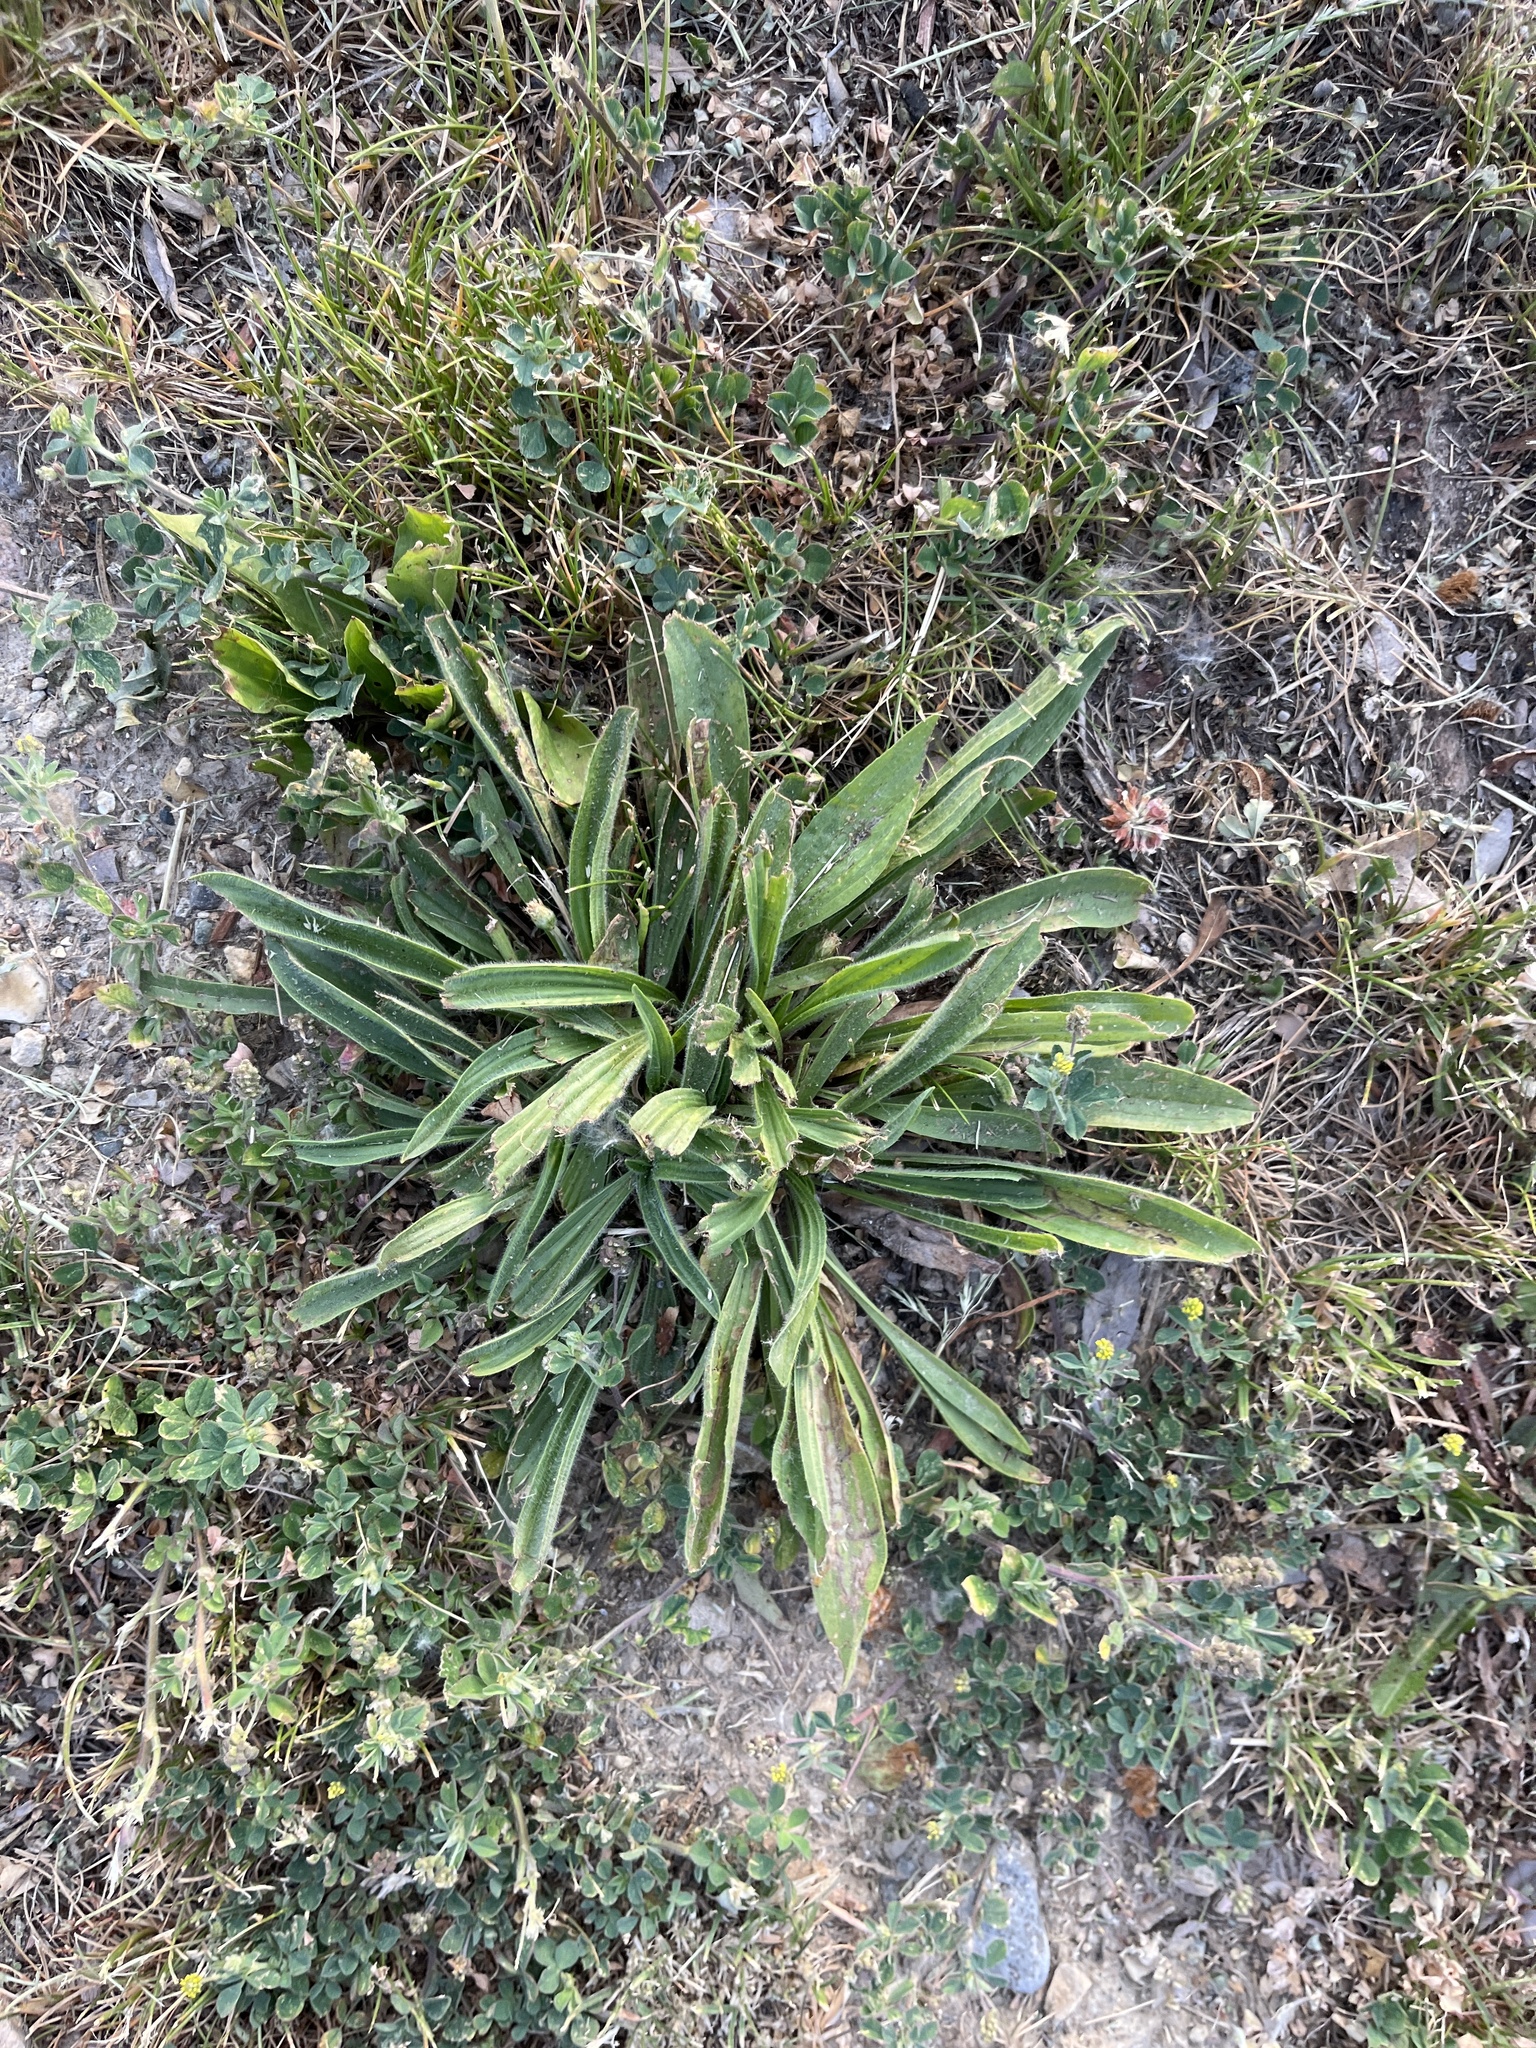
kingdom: Plantae
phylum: Tracheophyta
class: Magnoliopsida
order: Lamiales
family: Plantaginaceae
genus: Plantago
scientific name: Plantago lanceolata
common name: Ribwort plantain
